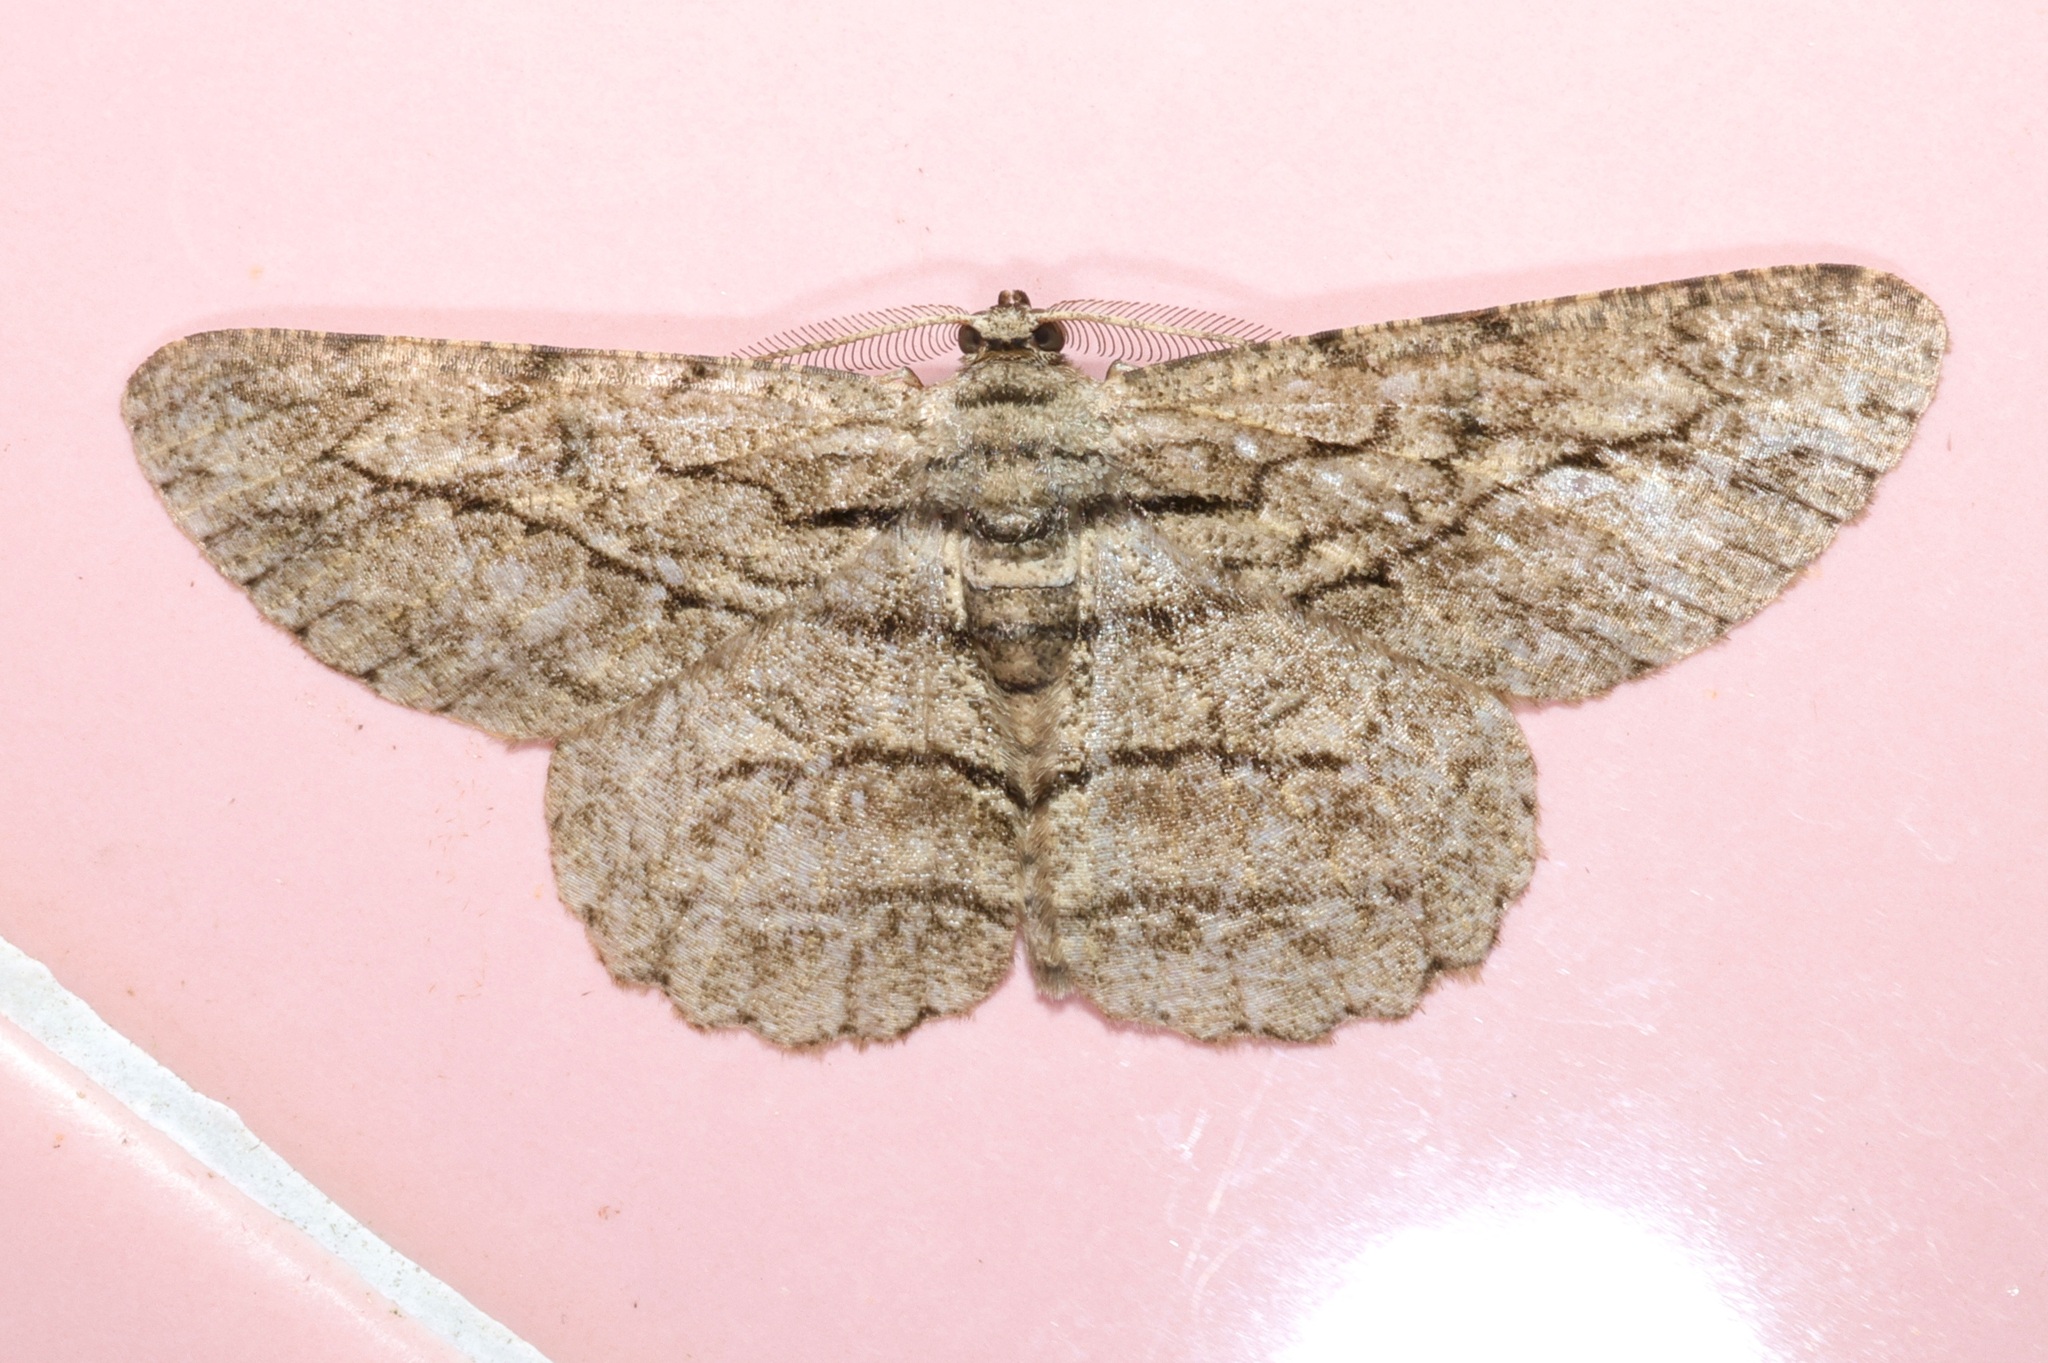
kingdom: Animalia
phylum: Arthropoda
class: Insecta
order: Lepidoptera
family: Geometridae
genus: Hypomecis
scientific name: Hypomecis transcissa
